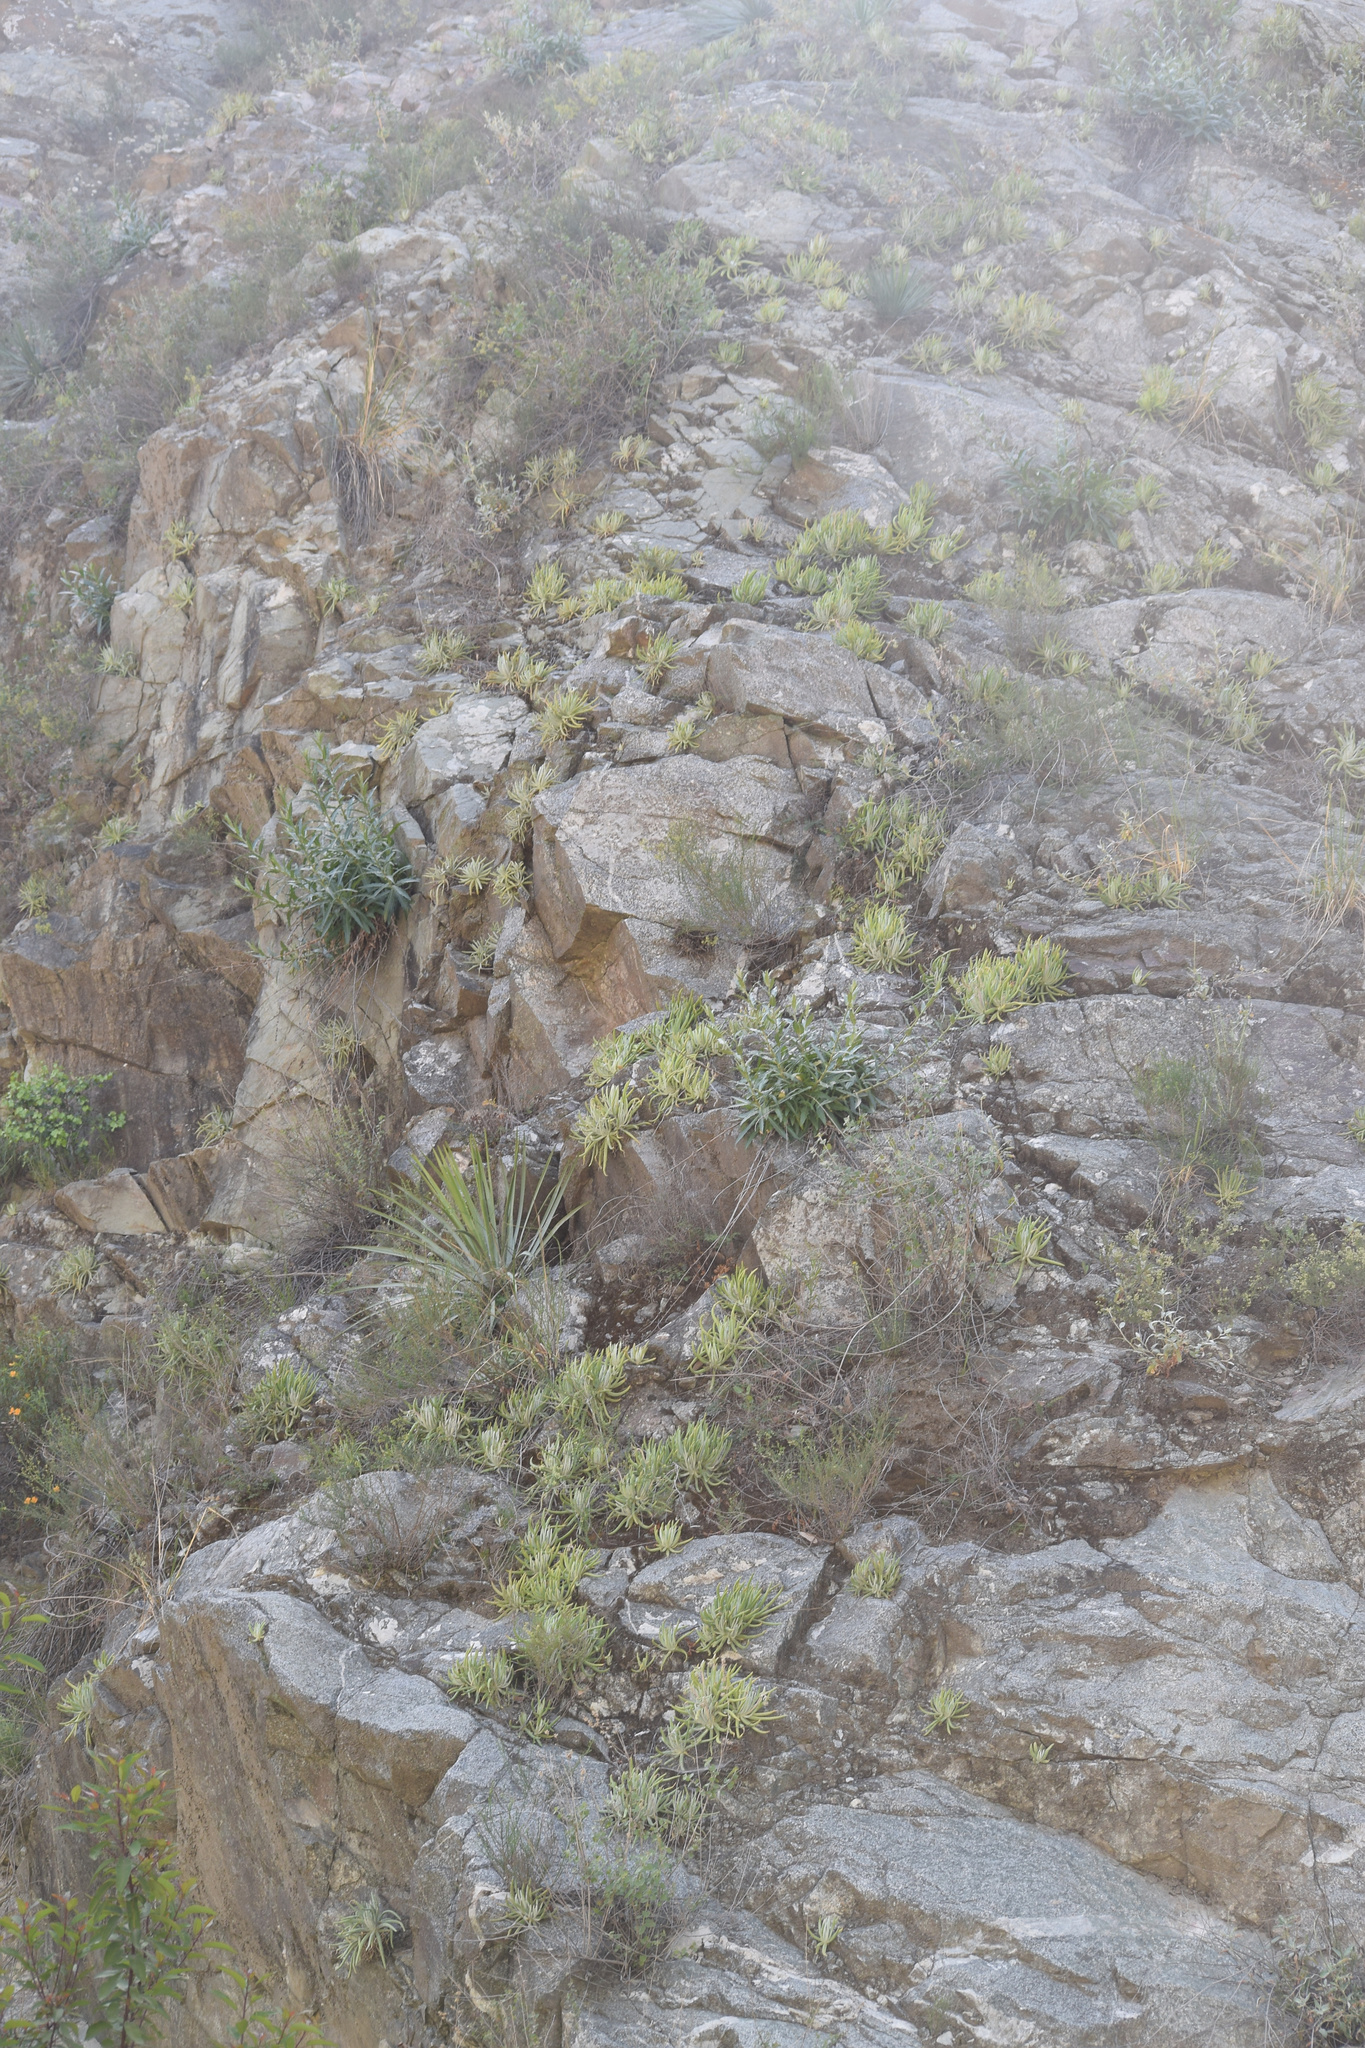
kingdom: Plantae
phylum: Tracheophyta
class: Magnoliopsida
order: Saxifragales
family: Crassulaceae
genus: Dudleya
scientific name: Dudleya densiflora
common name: San gabriel mountains dudleya
